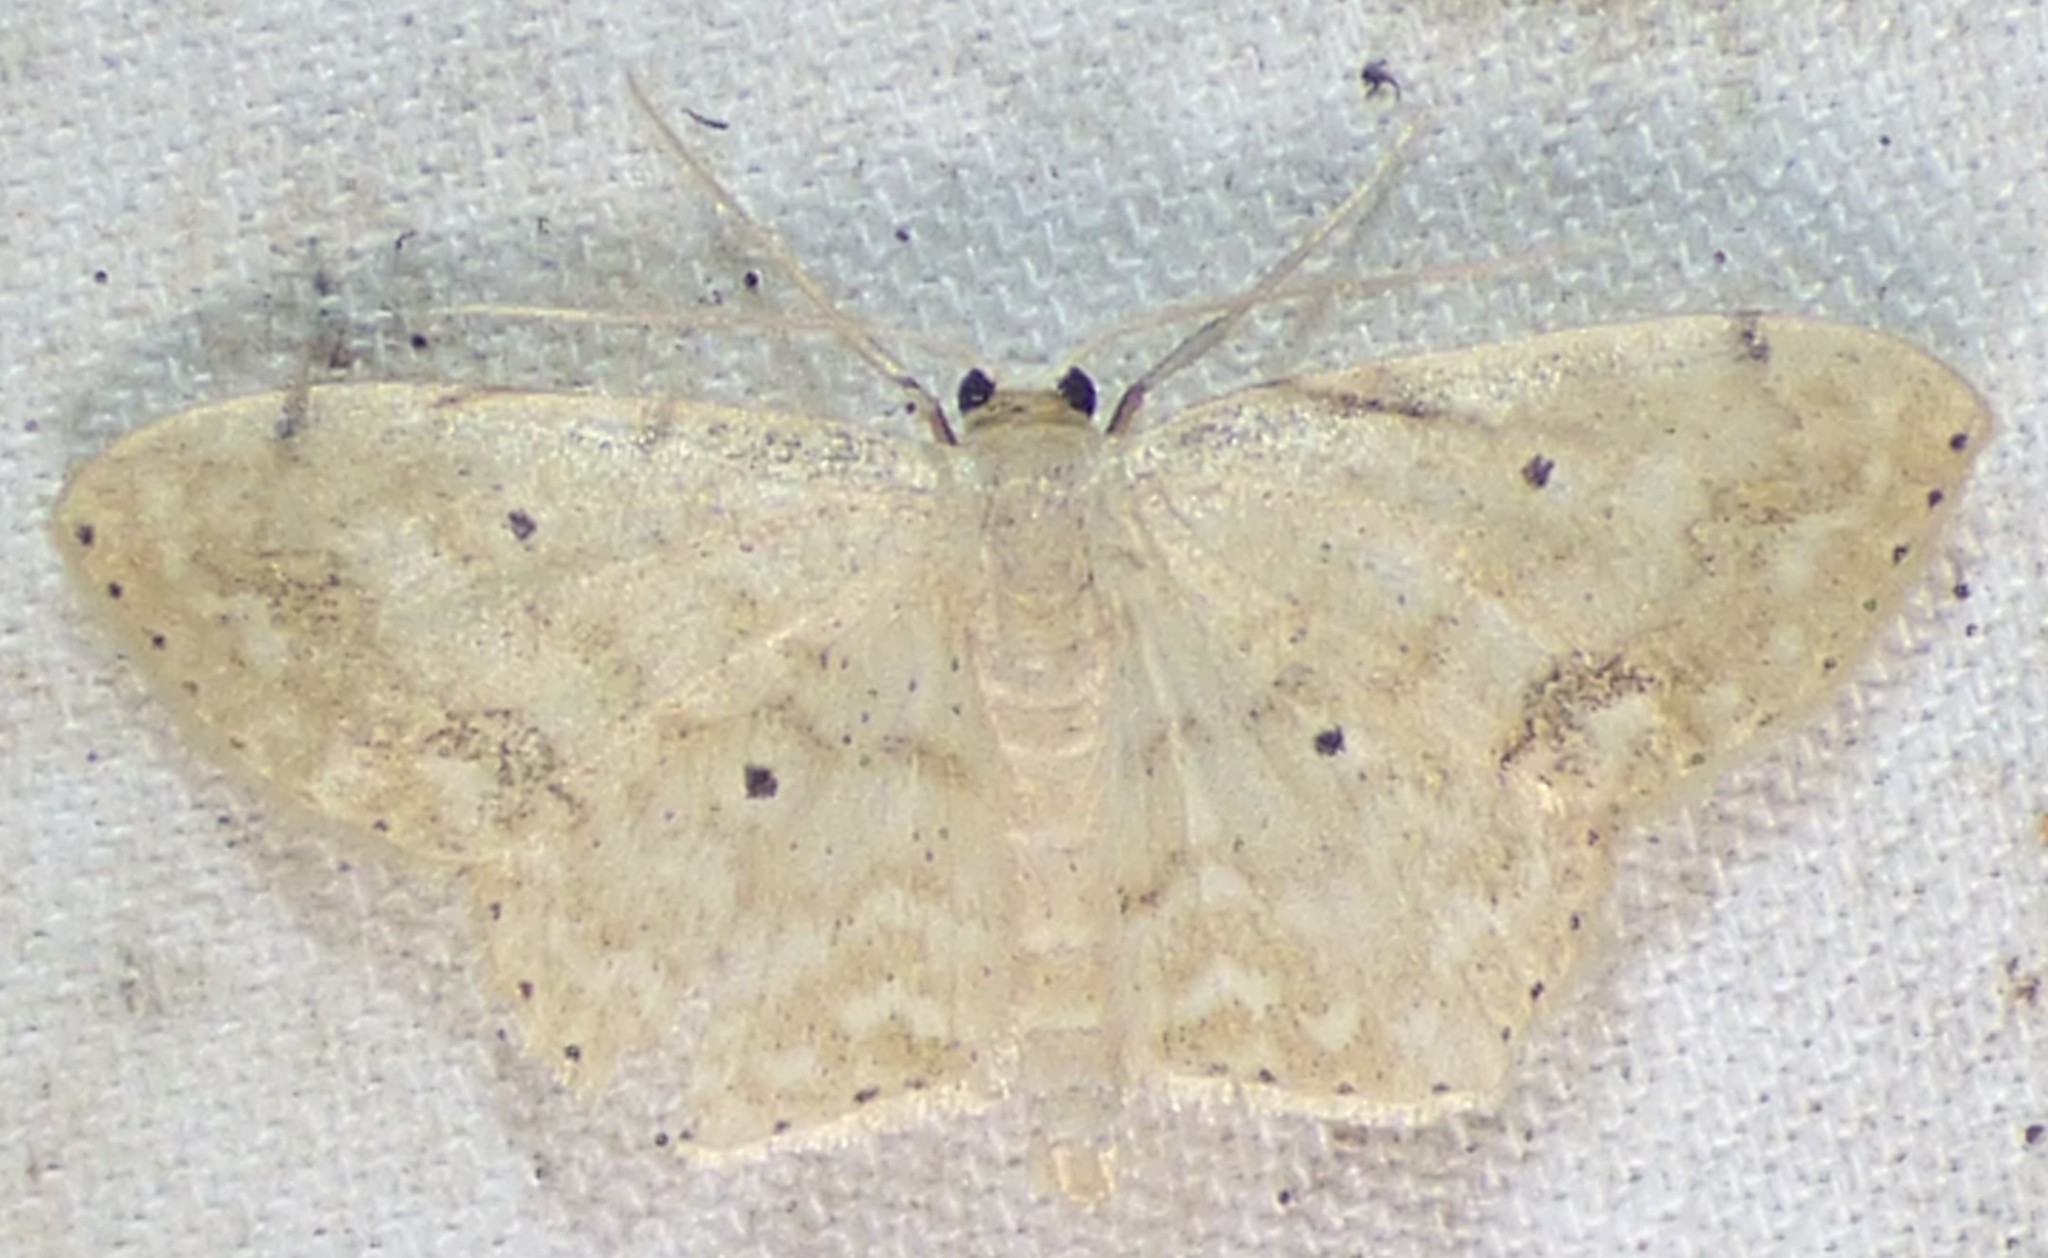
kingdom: Animalia
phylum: Arthropoda
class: Insecta
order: Lepidoptera
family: Geometridae
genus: Scopula
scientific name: Scopula compensata
